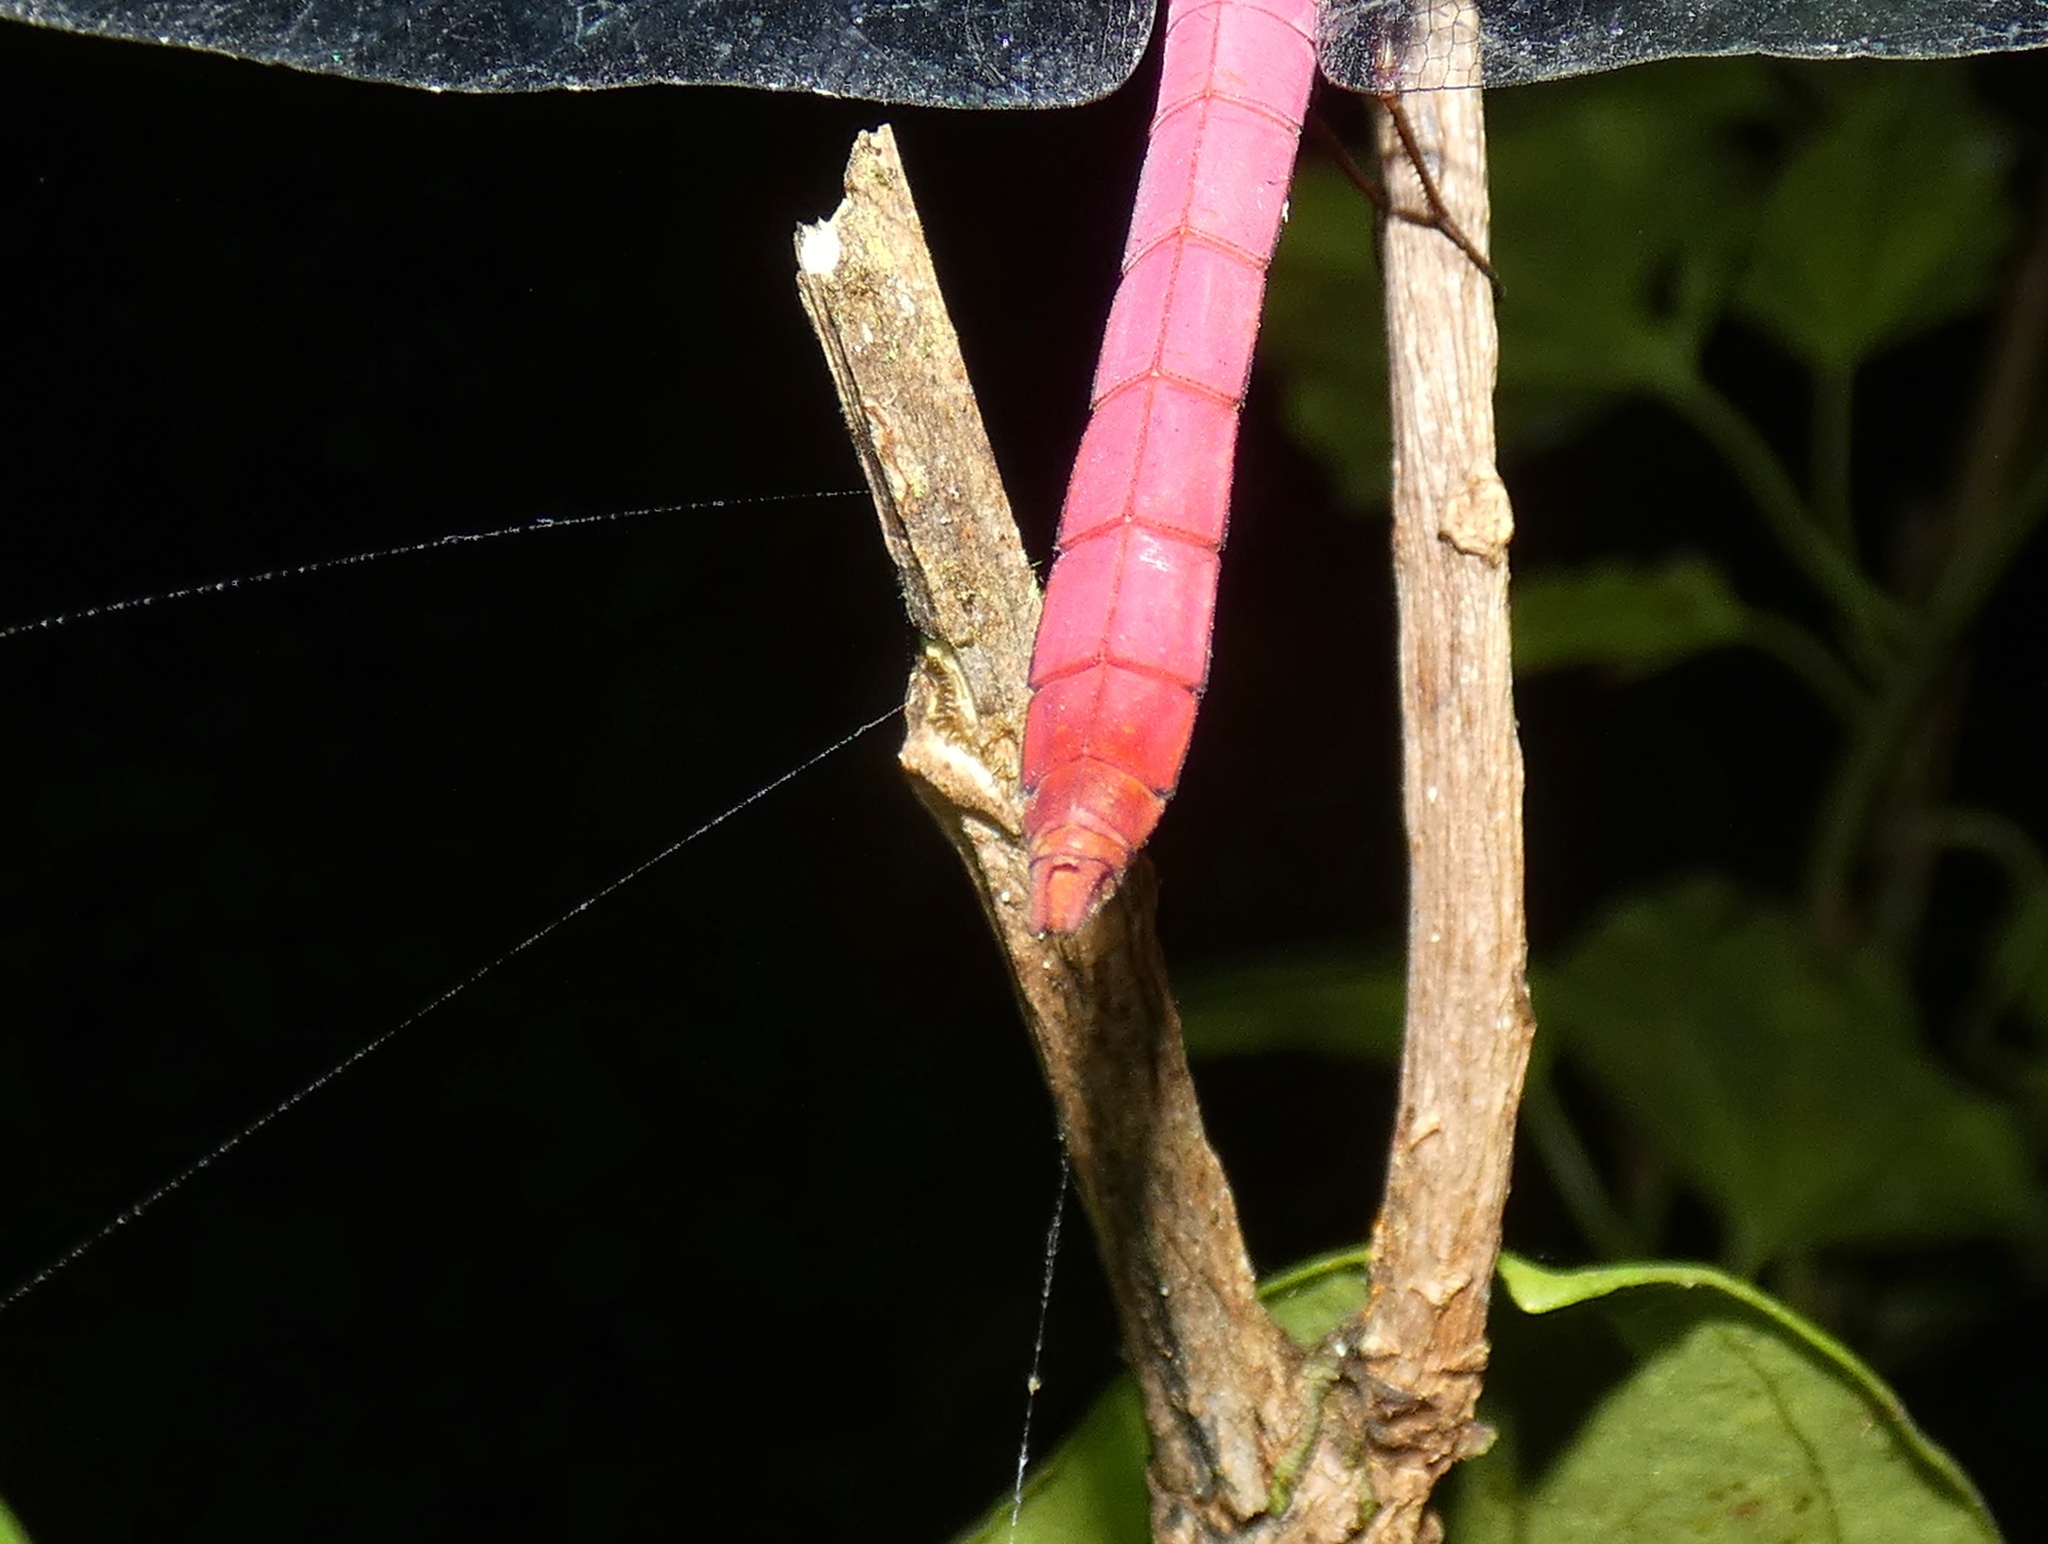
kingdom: Animalia
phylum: Arthropoda
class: Insecta
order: Odonata
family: Libellulidae
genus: Orthemis
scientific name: Orthemis discolor
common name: Carmine skimmer
